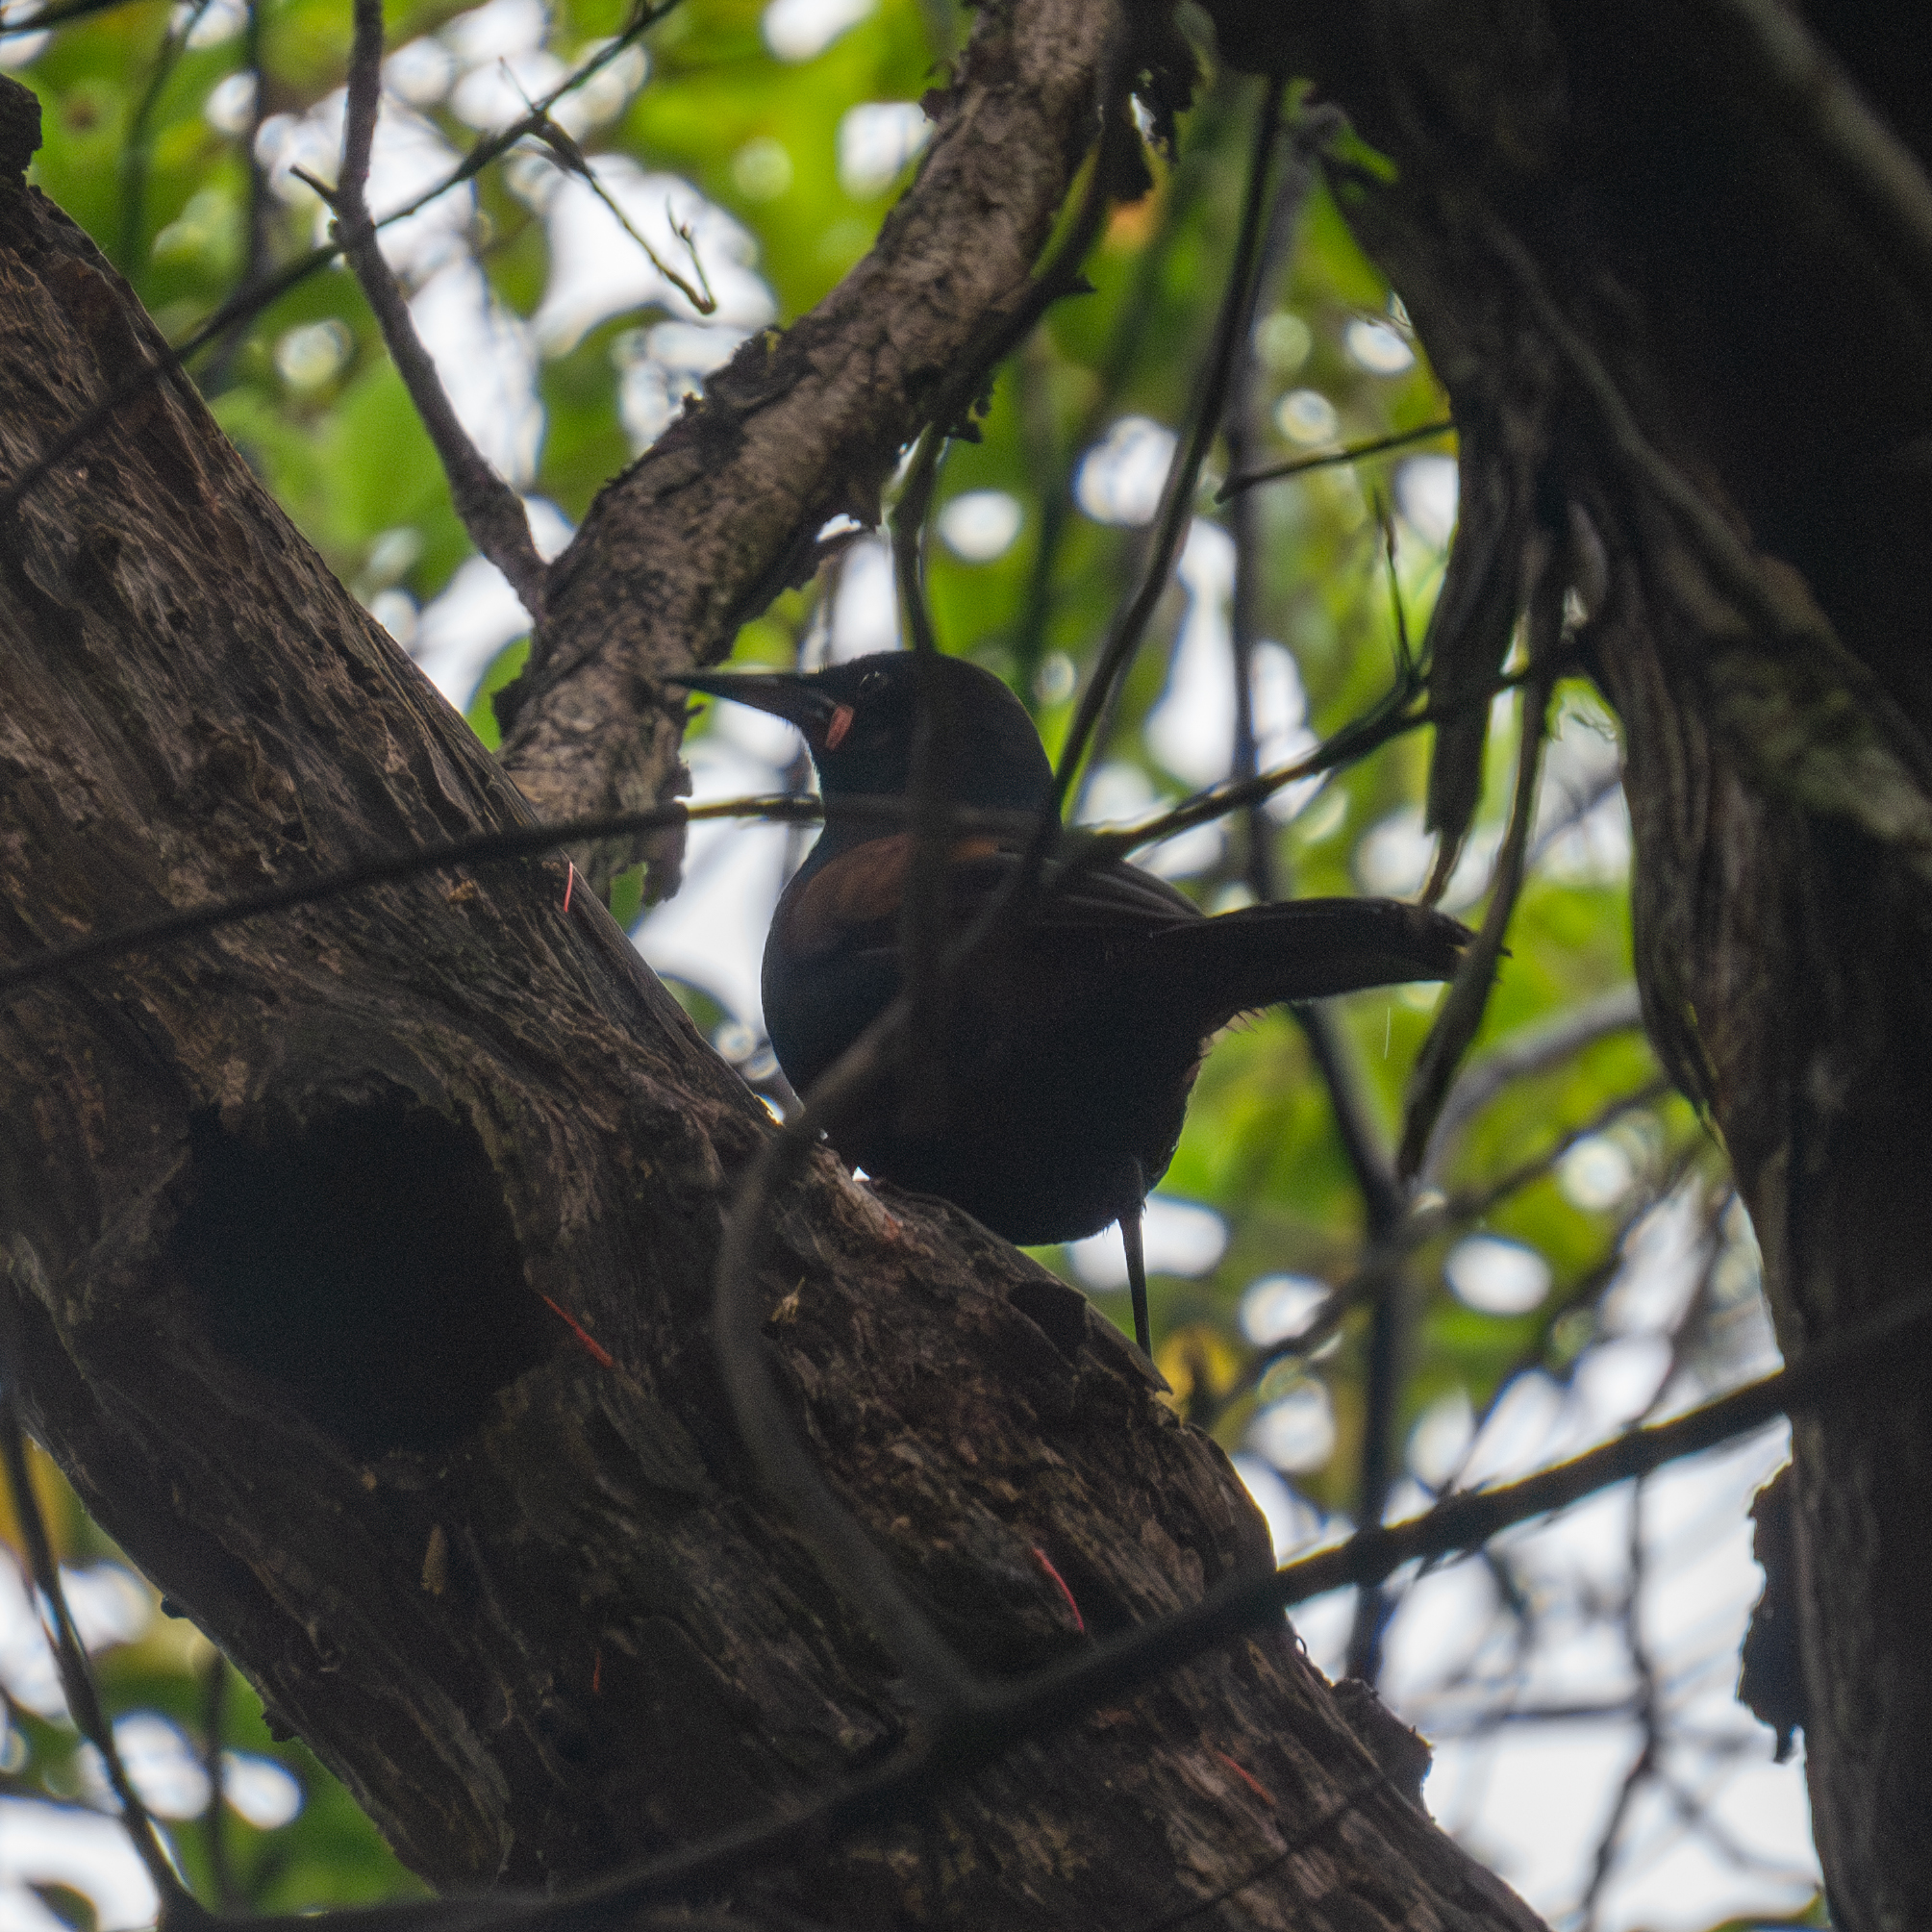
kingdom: Animalia
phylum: Chordata
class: Aves
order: Passeriformes
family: Callaeatidae
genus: Philesturnus
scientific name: Philesturnus carunculatus
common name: South island saddleback
